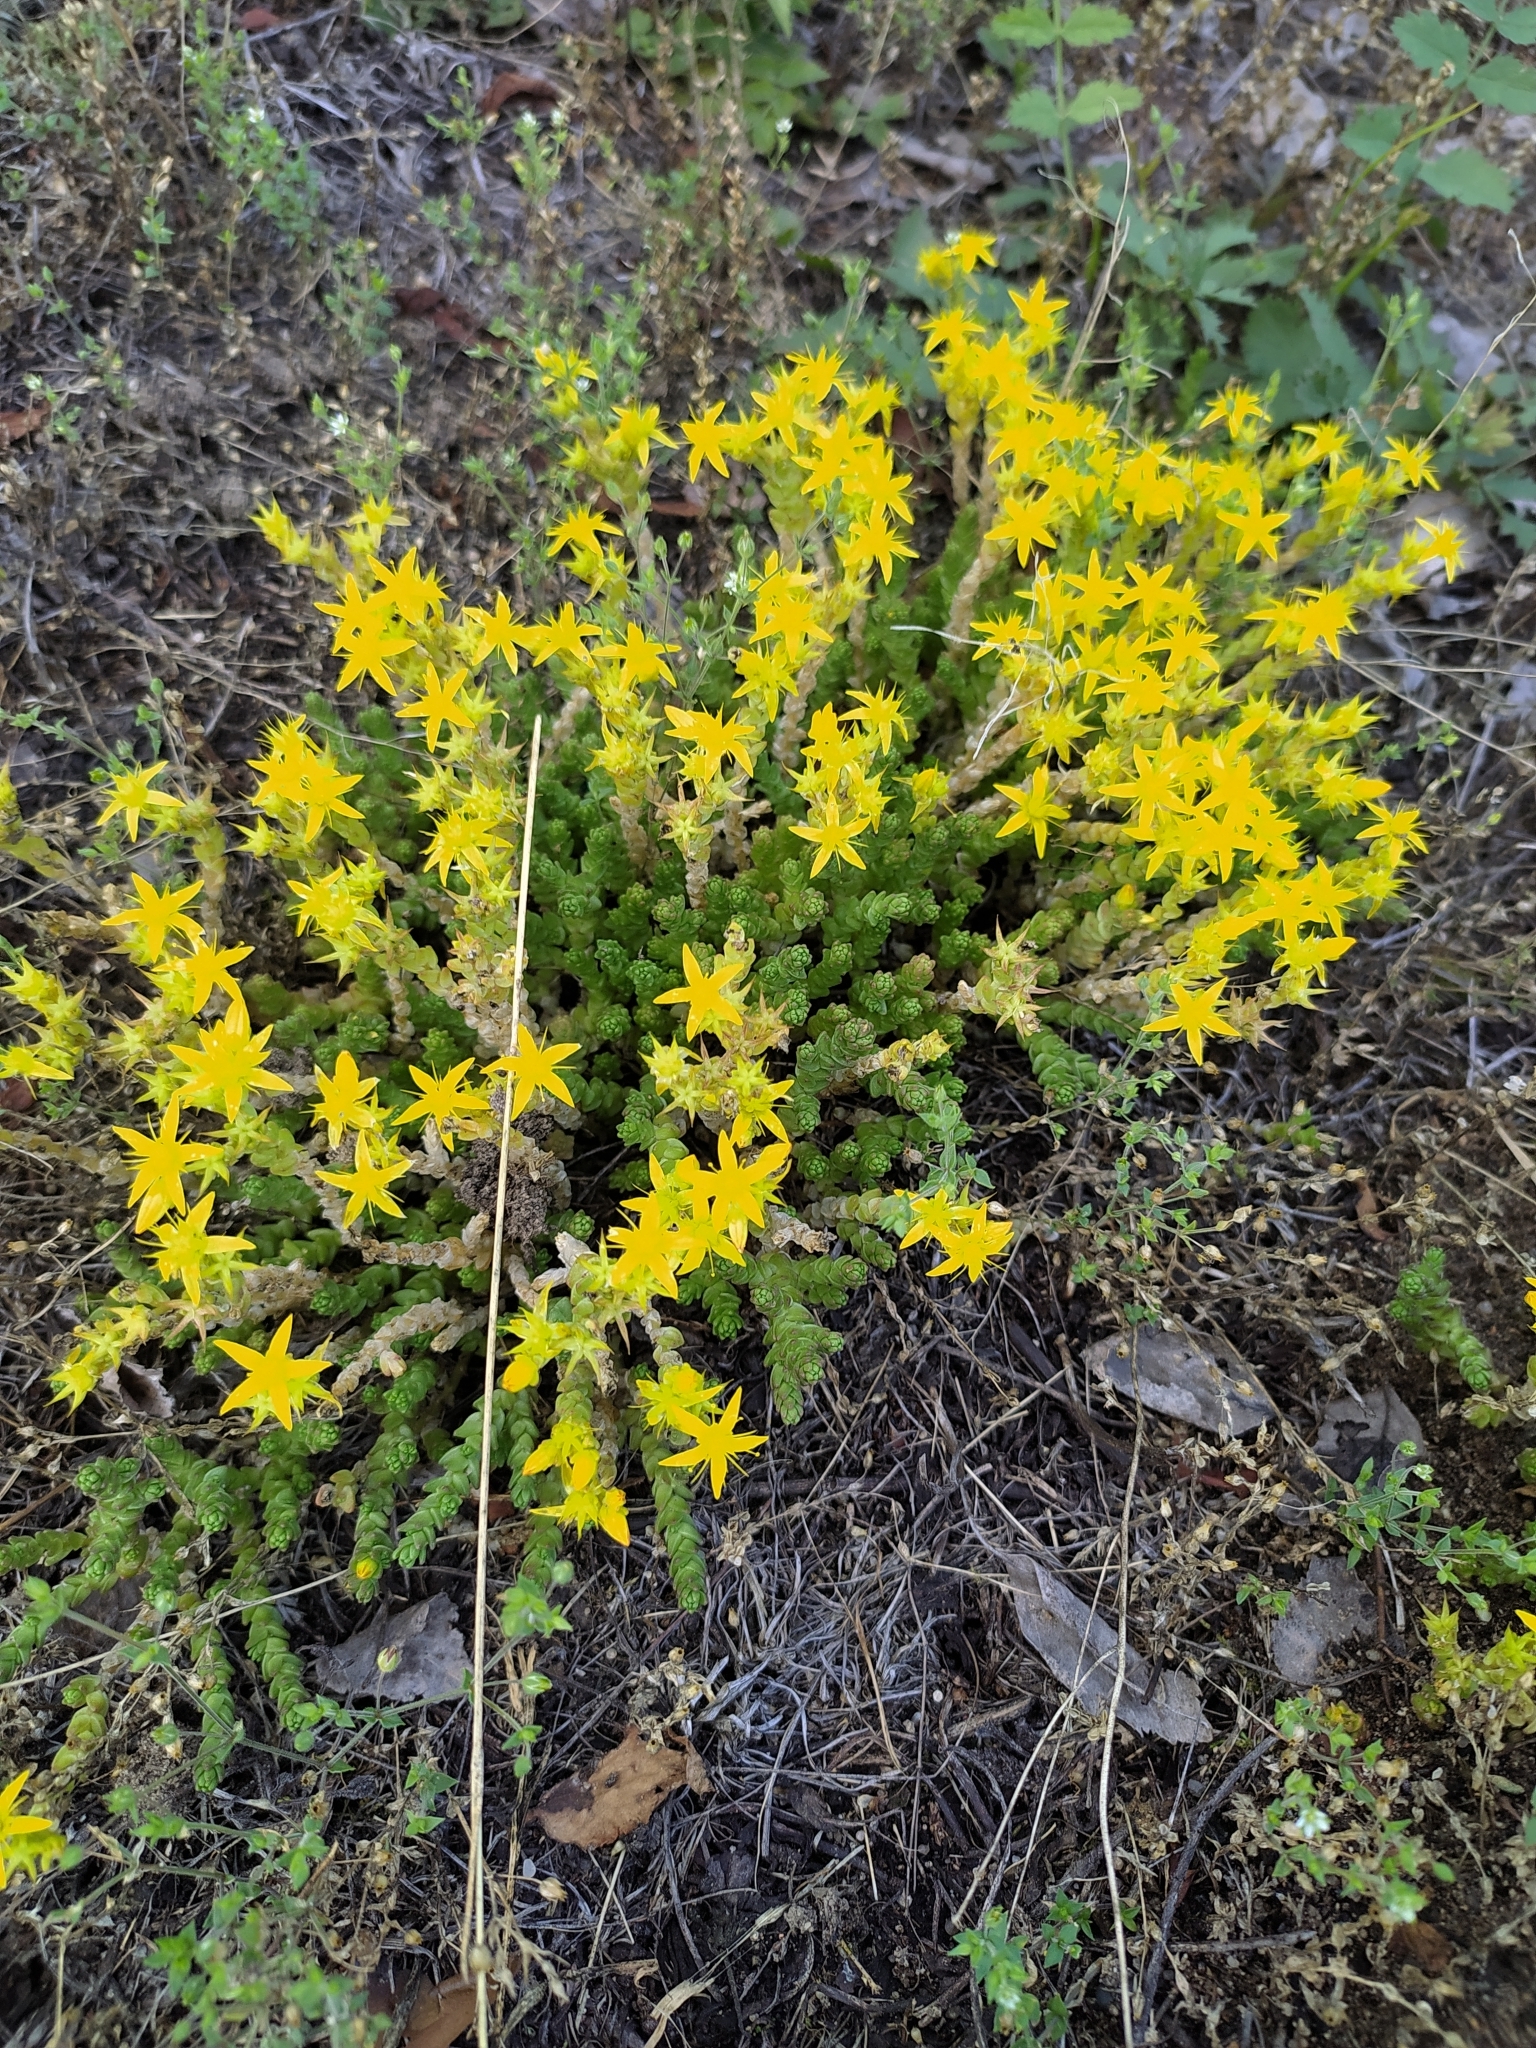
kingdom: Plantae
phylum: Tracheophyta
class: Magnoliopsida
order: Saxifragales
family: Crassulaceae
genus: Sedum
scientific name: Sedum acre
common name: Biting stonecrop
